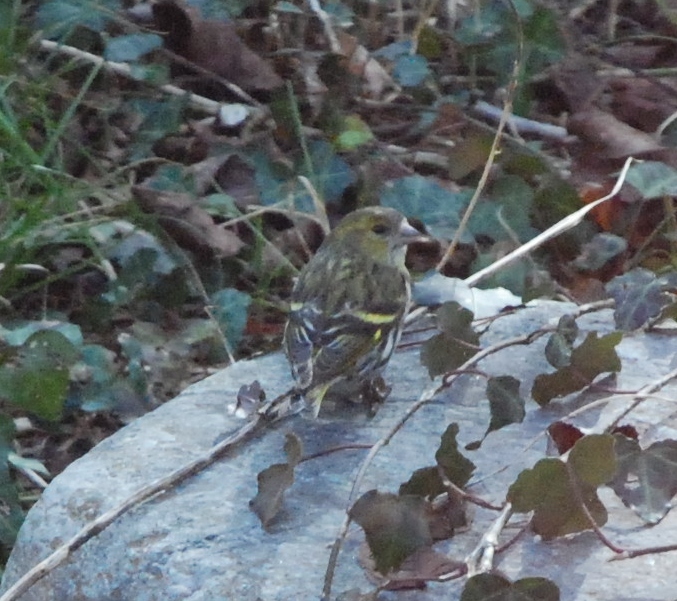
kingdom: Animalia
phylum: Chordata
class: Aves
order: Passeriformes
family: Fringillidae
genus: Spinus
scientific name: Spinus spinus
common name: Eurasian siskin
